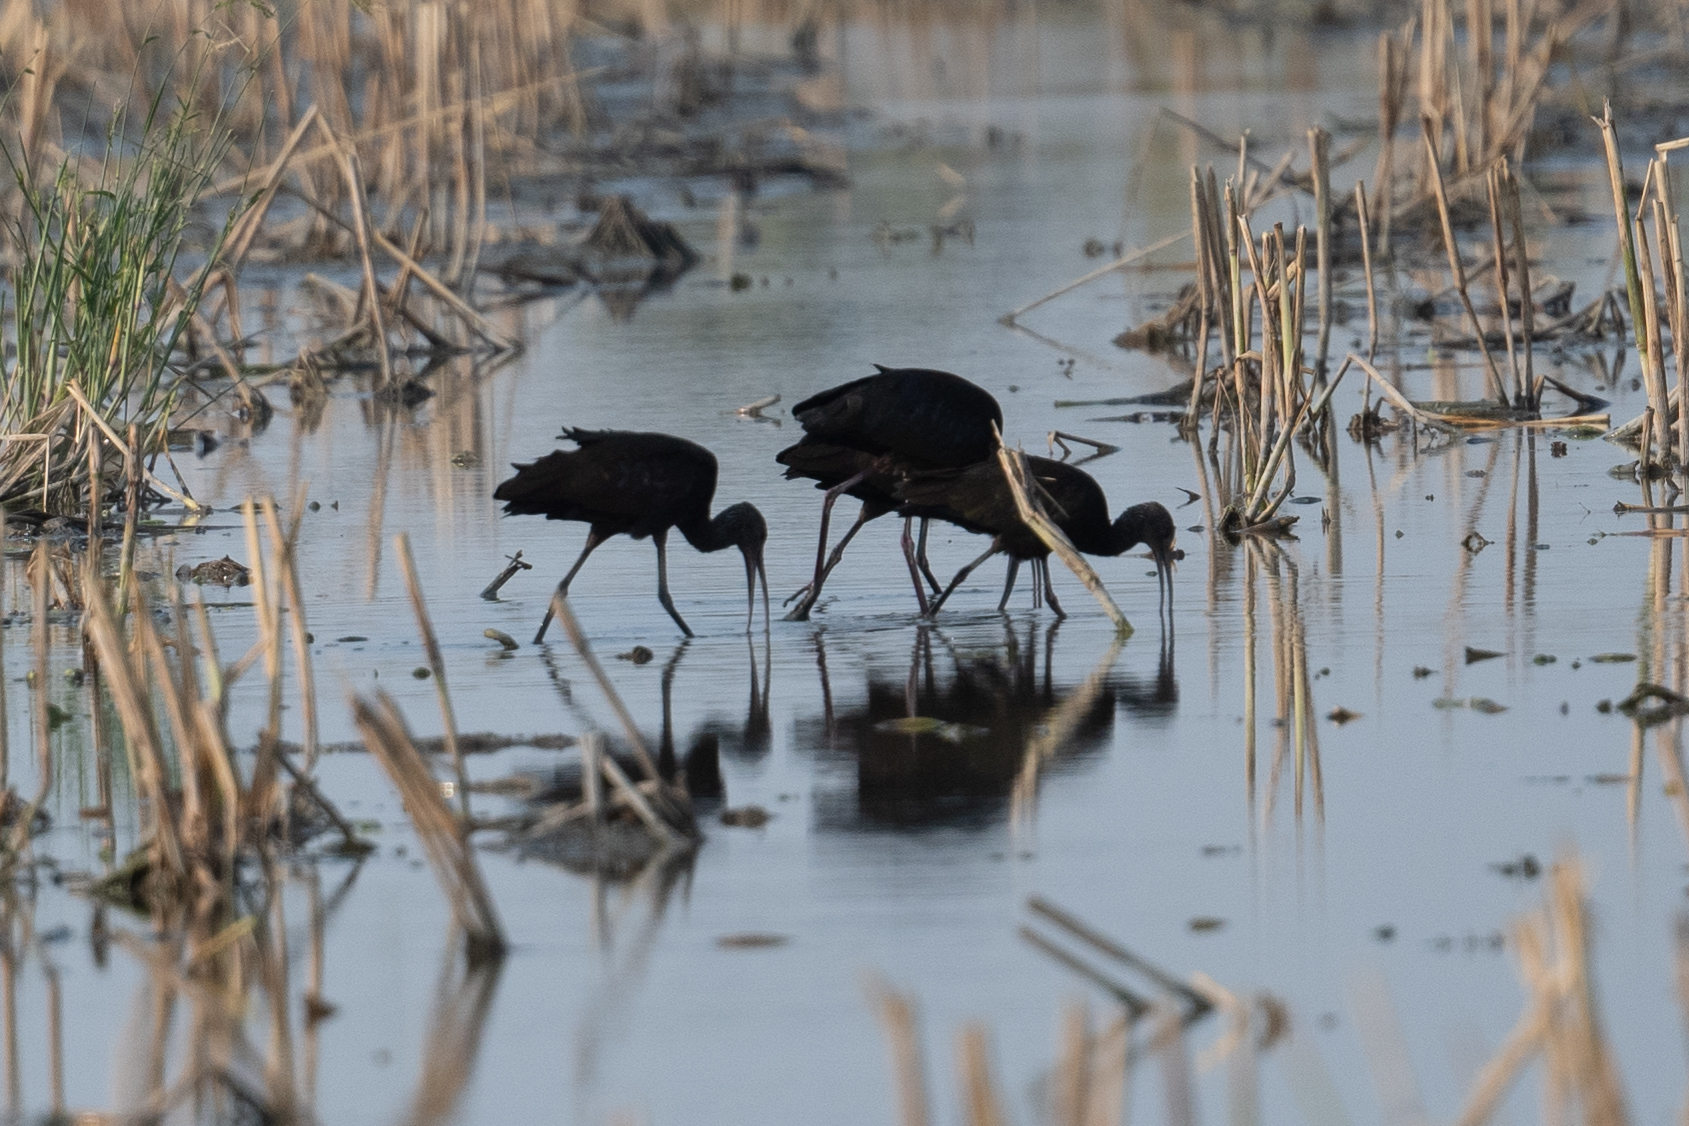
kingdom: Animalia
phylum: Chordata
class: Aves
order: Pelecaniformes
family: Threskiornithidae
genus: Plegadis
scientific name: Plegadis chihi
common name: White-faced ibis
